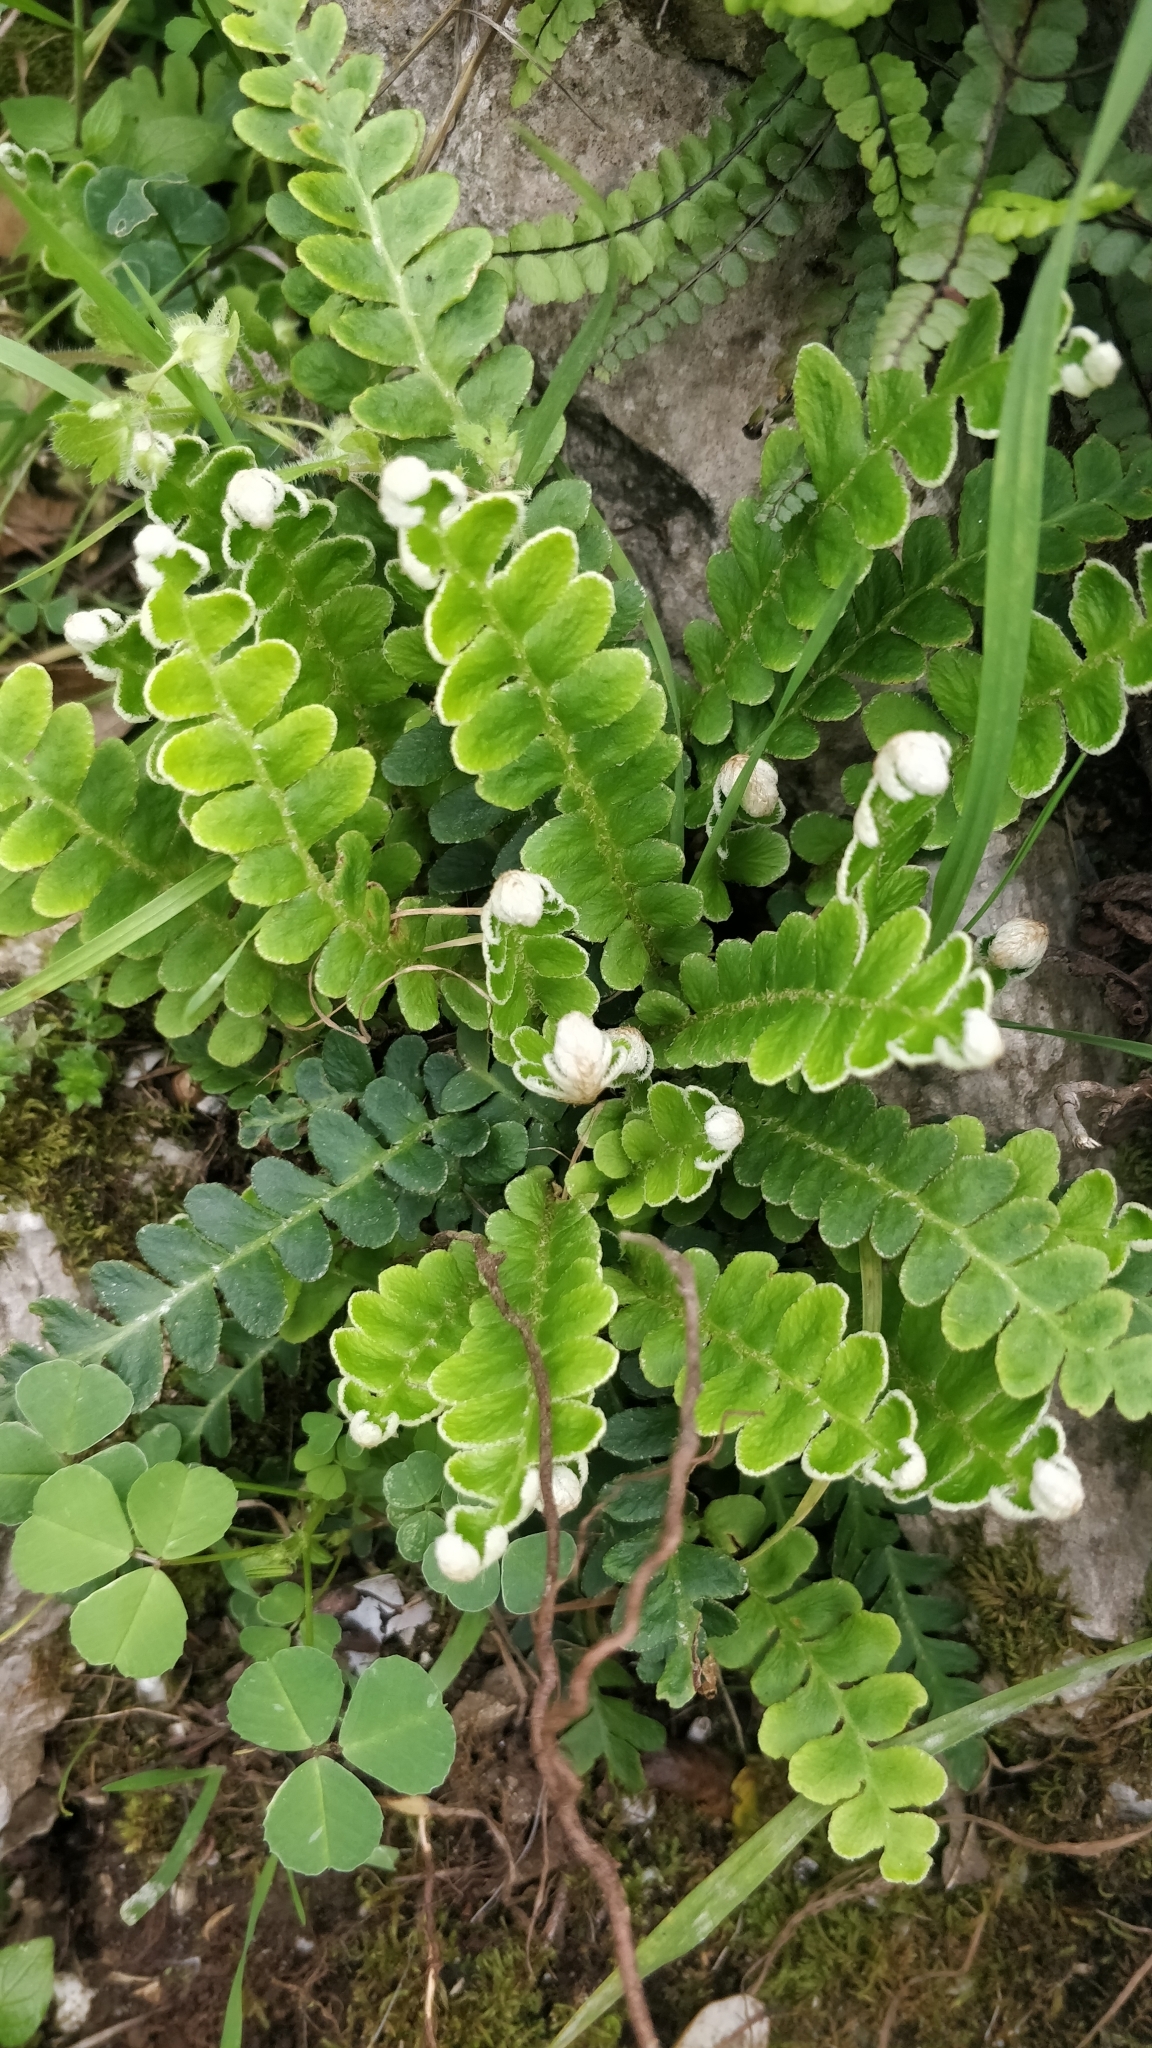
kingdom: Plantae
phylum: Tracheophyta
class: Polypodiopsida
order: Polypodiales
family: Aspleniaceae
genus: Asplenium
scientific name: Asplenium ceterach
